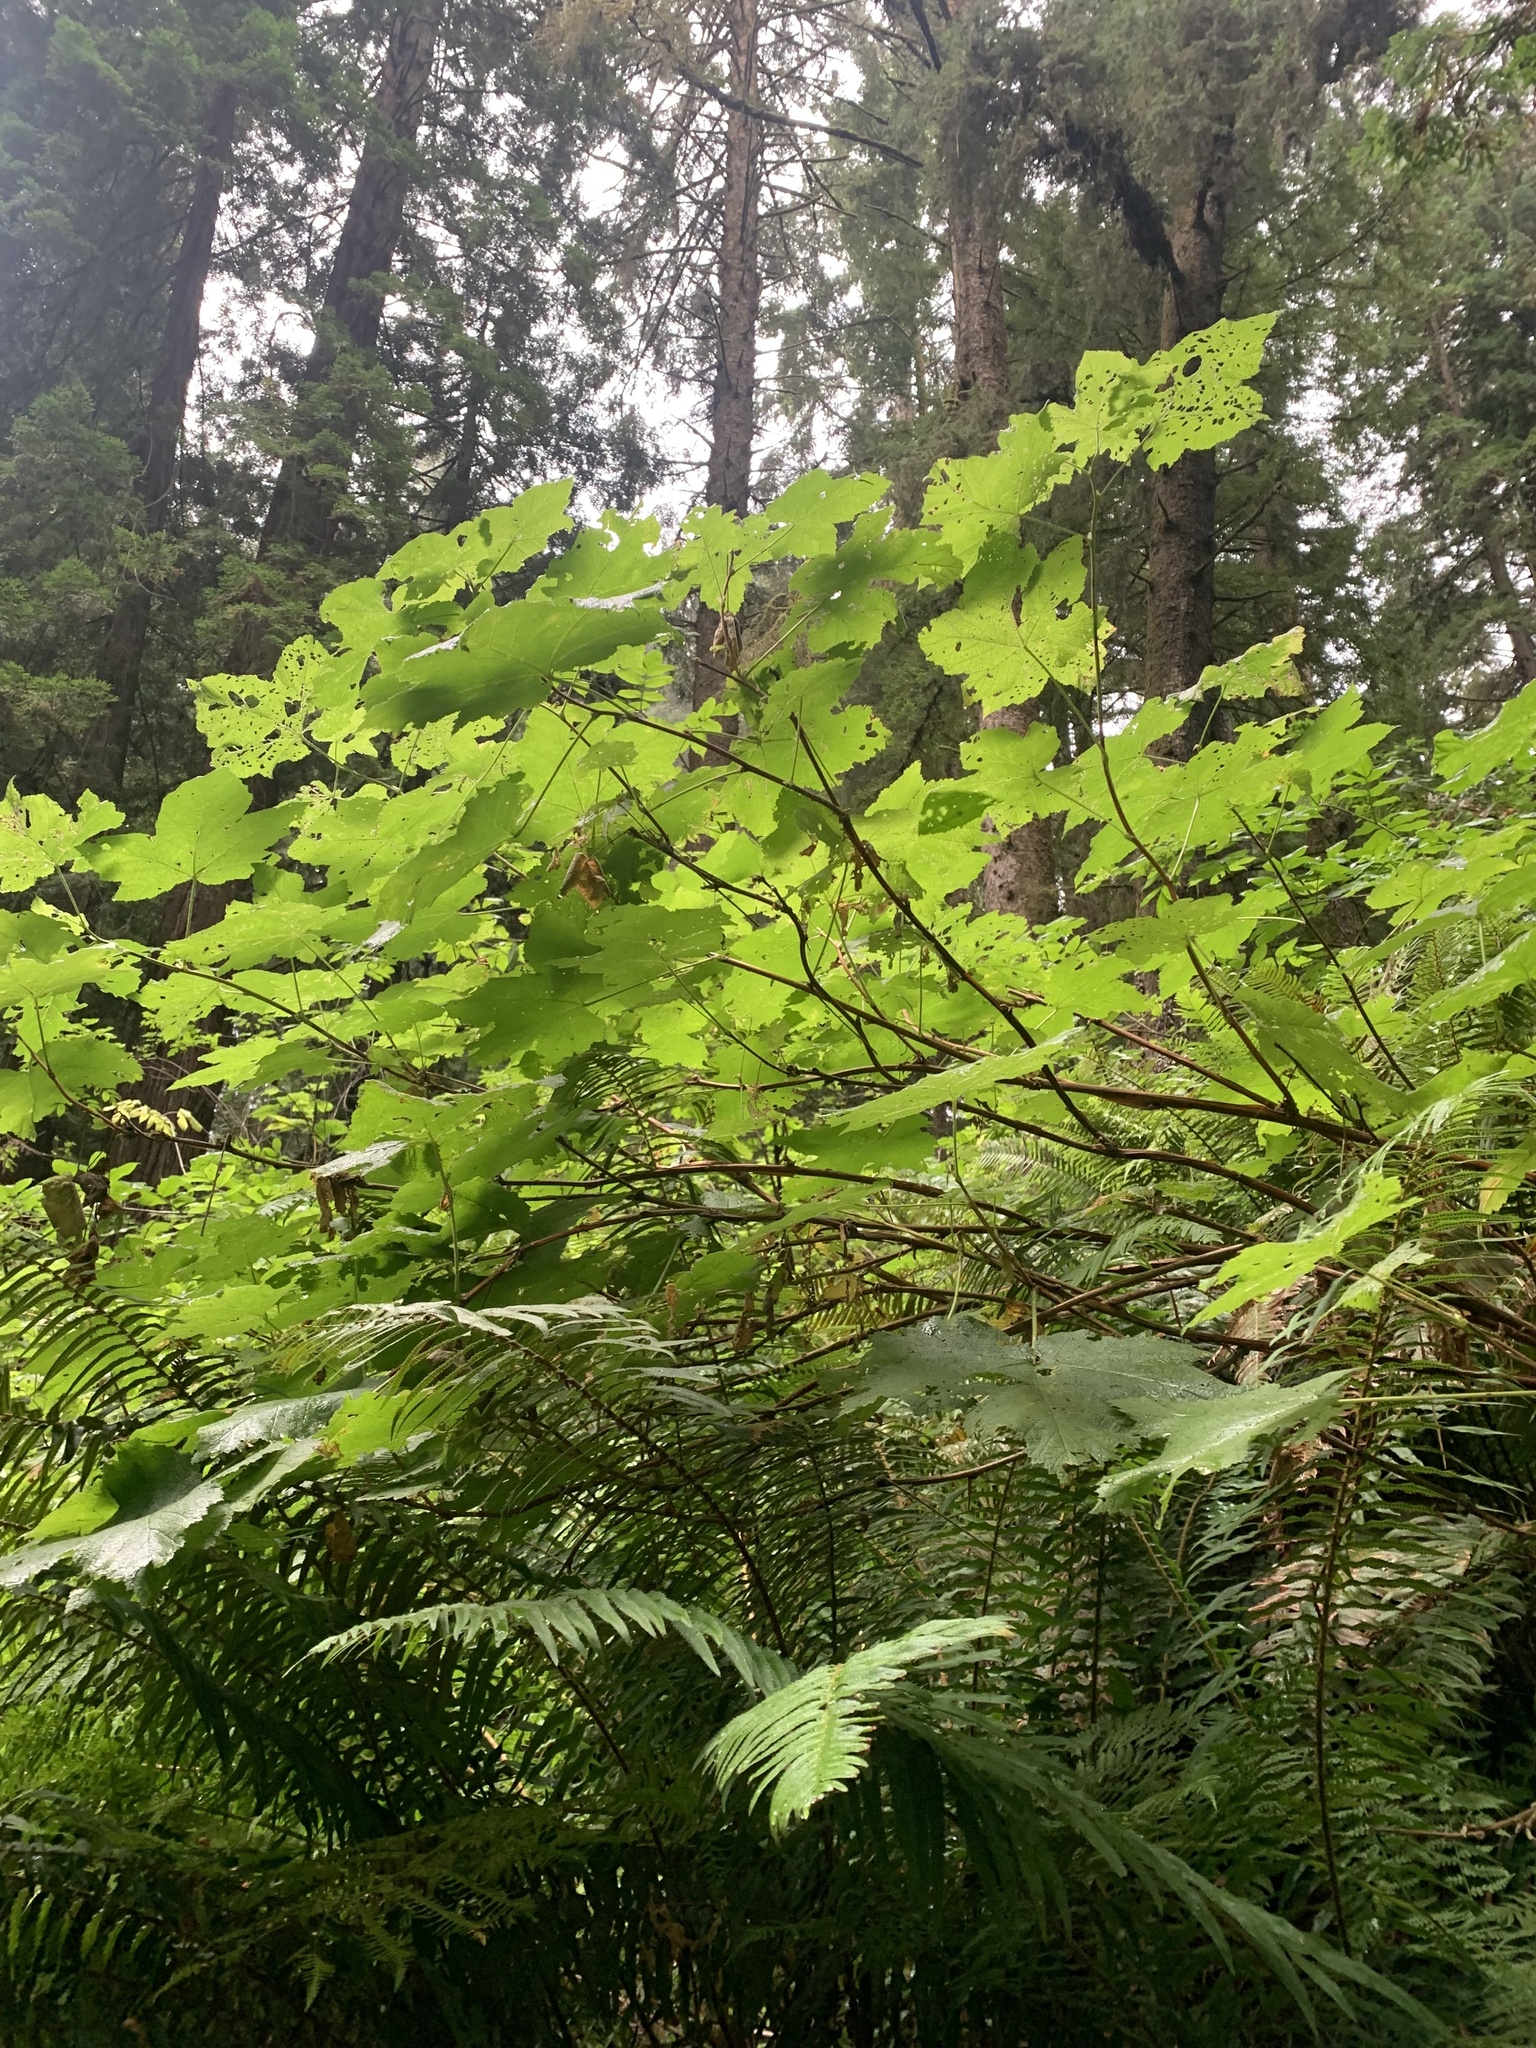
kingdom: Plantae
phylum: Tracheophyta
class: Magnoliopsida
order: Rosales
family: Rosaceae
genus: Rubus
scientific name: Rubus parviflorus
